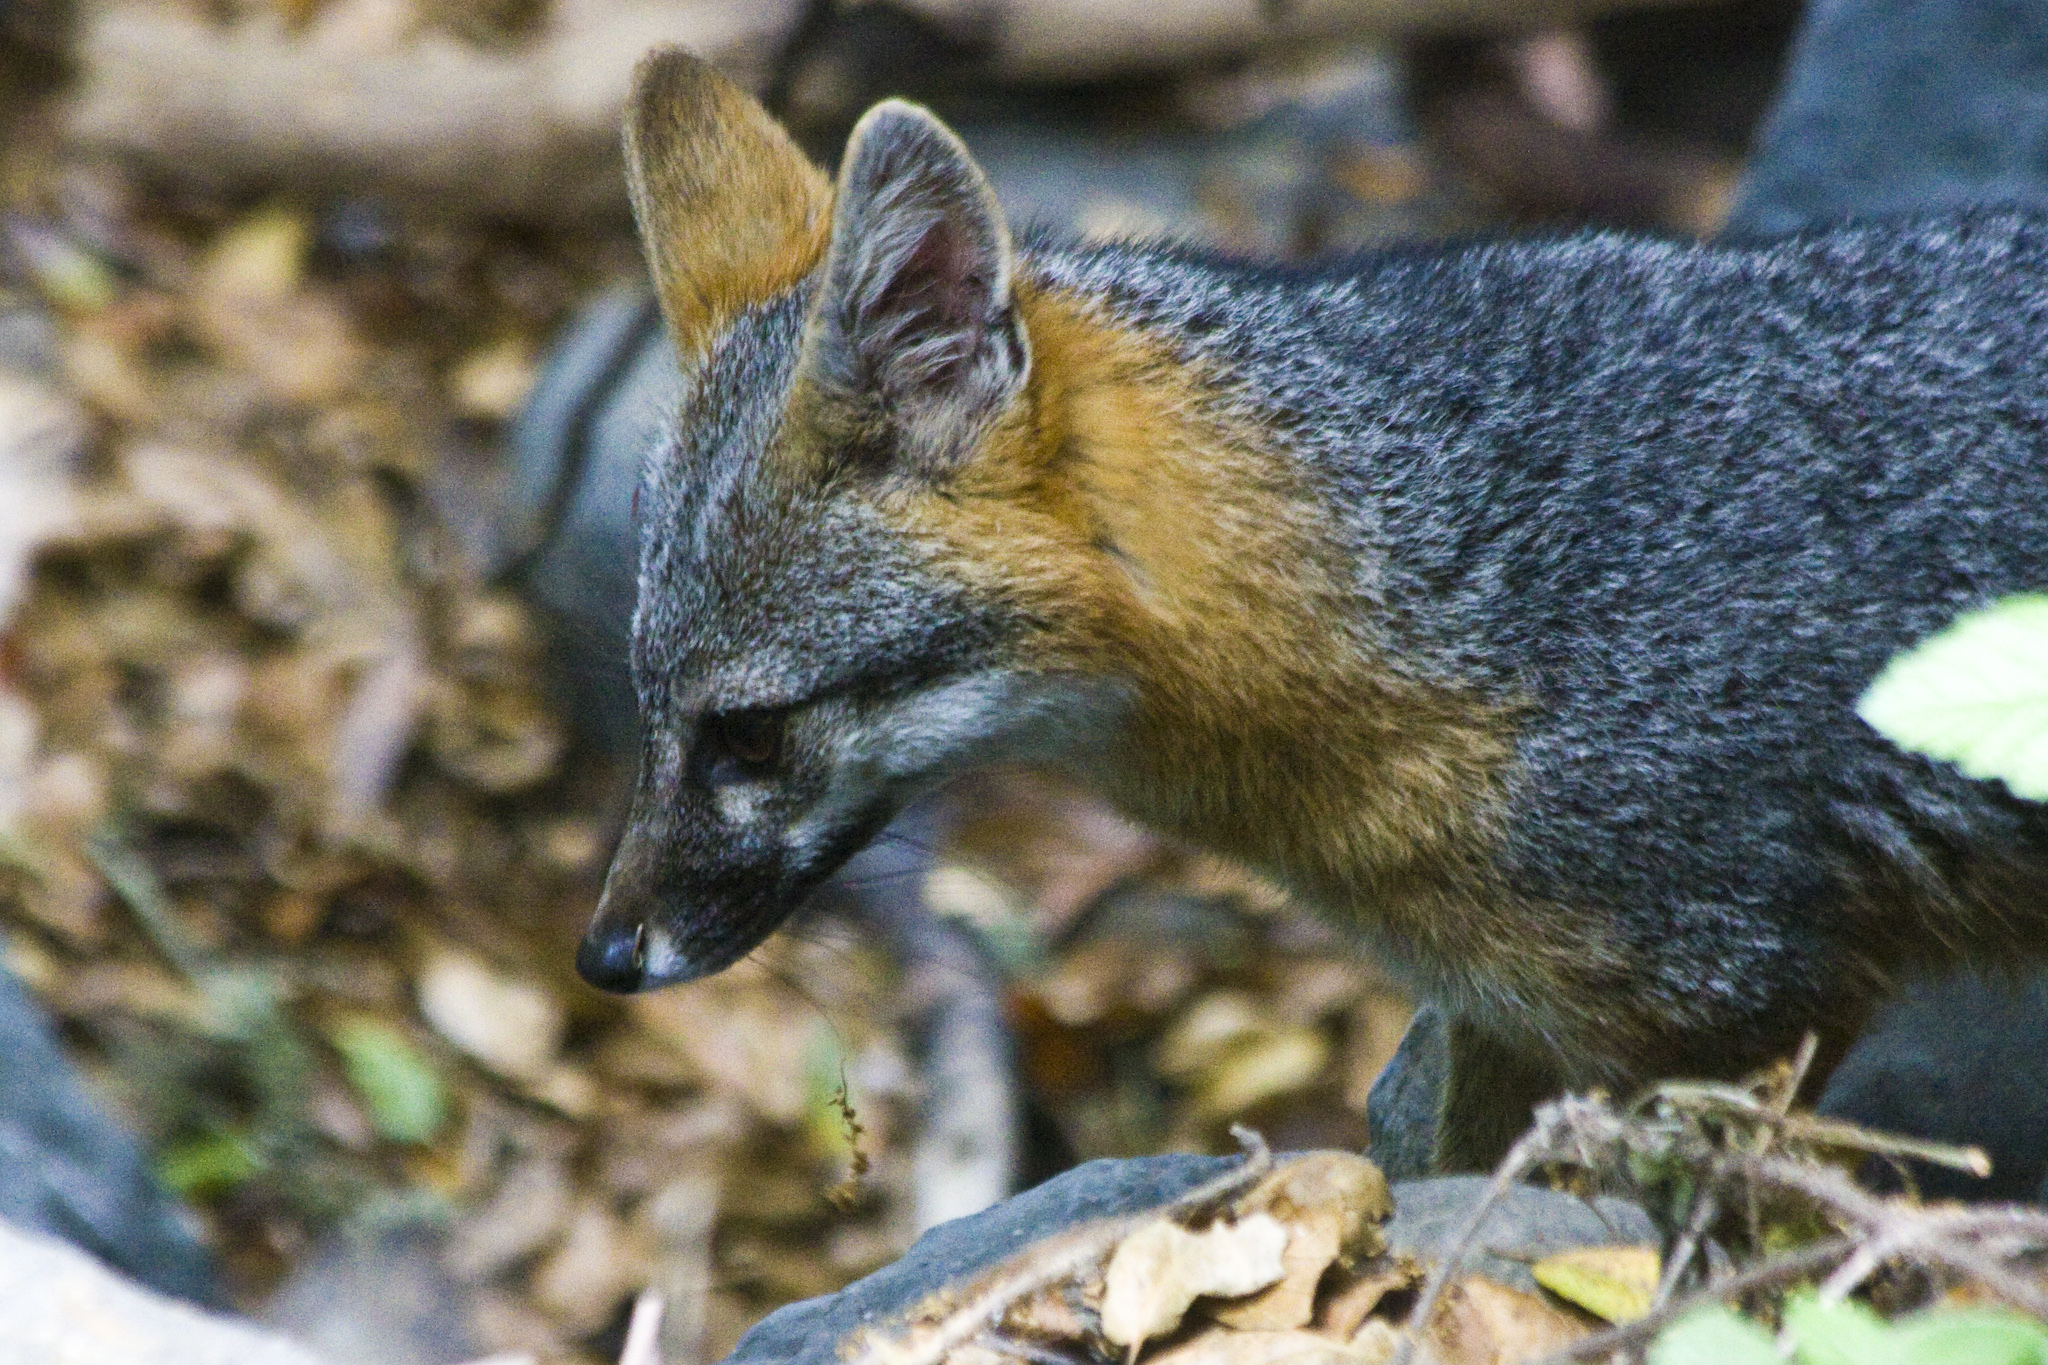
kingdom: Animalia
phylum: Chordata
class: Mammalia
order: Carnivora
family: Canidae
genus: Urocyon
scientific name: Urocyon cinereoargenteus
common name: Gray fox
